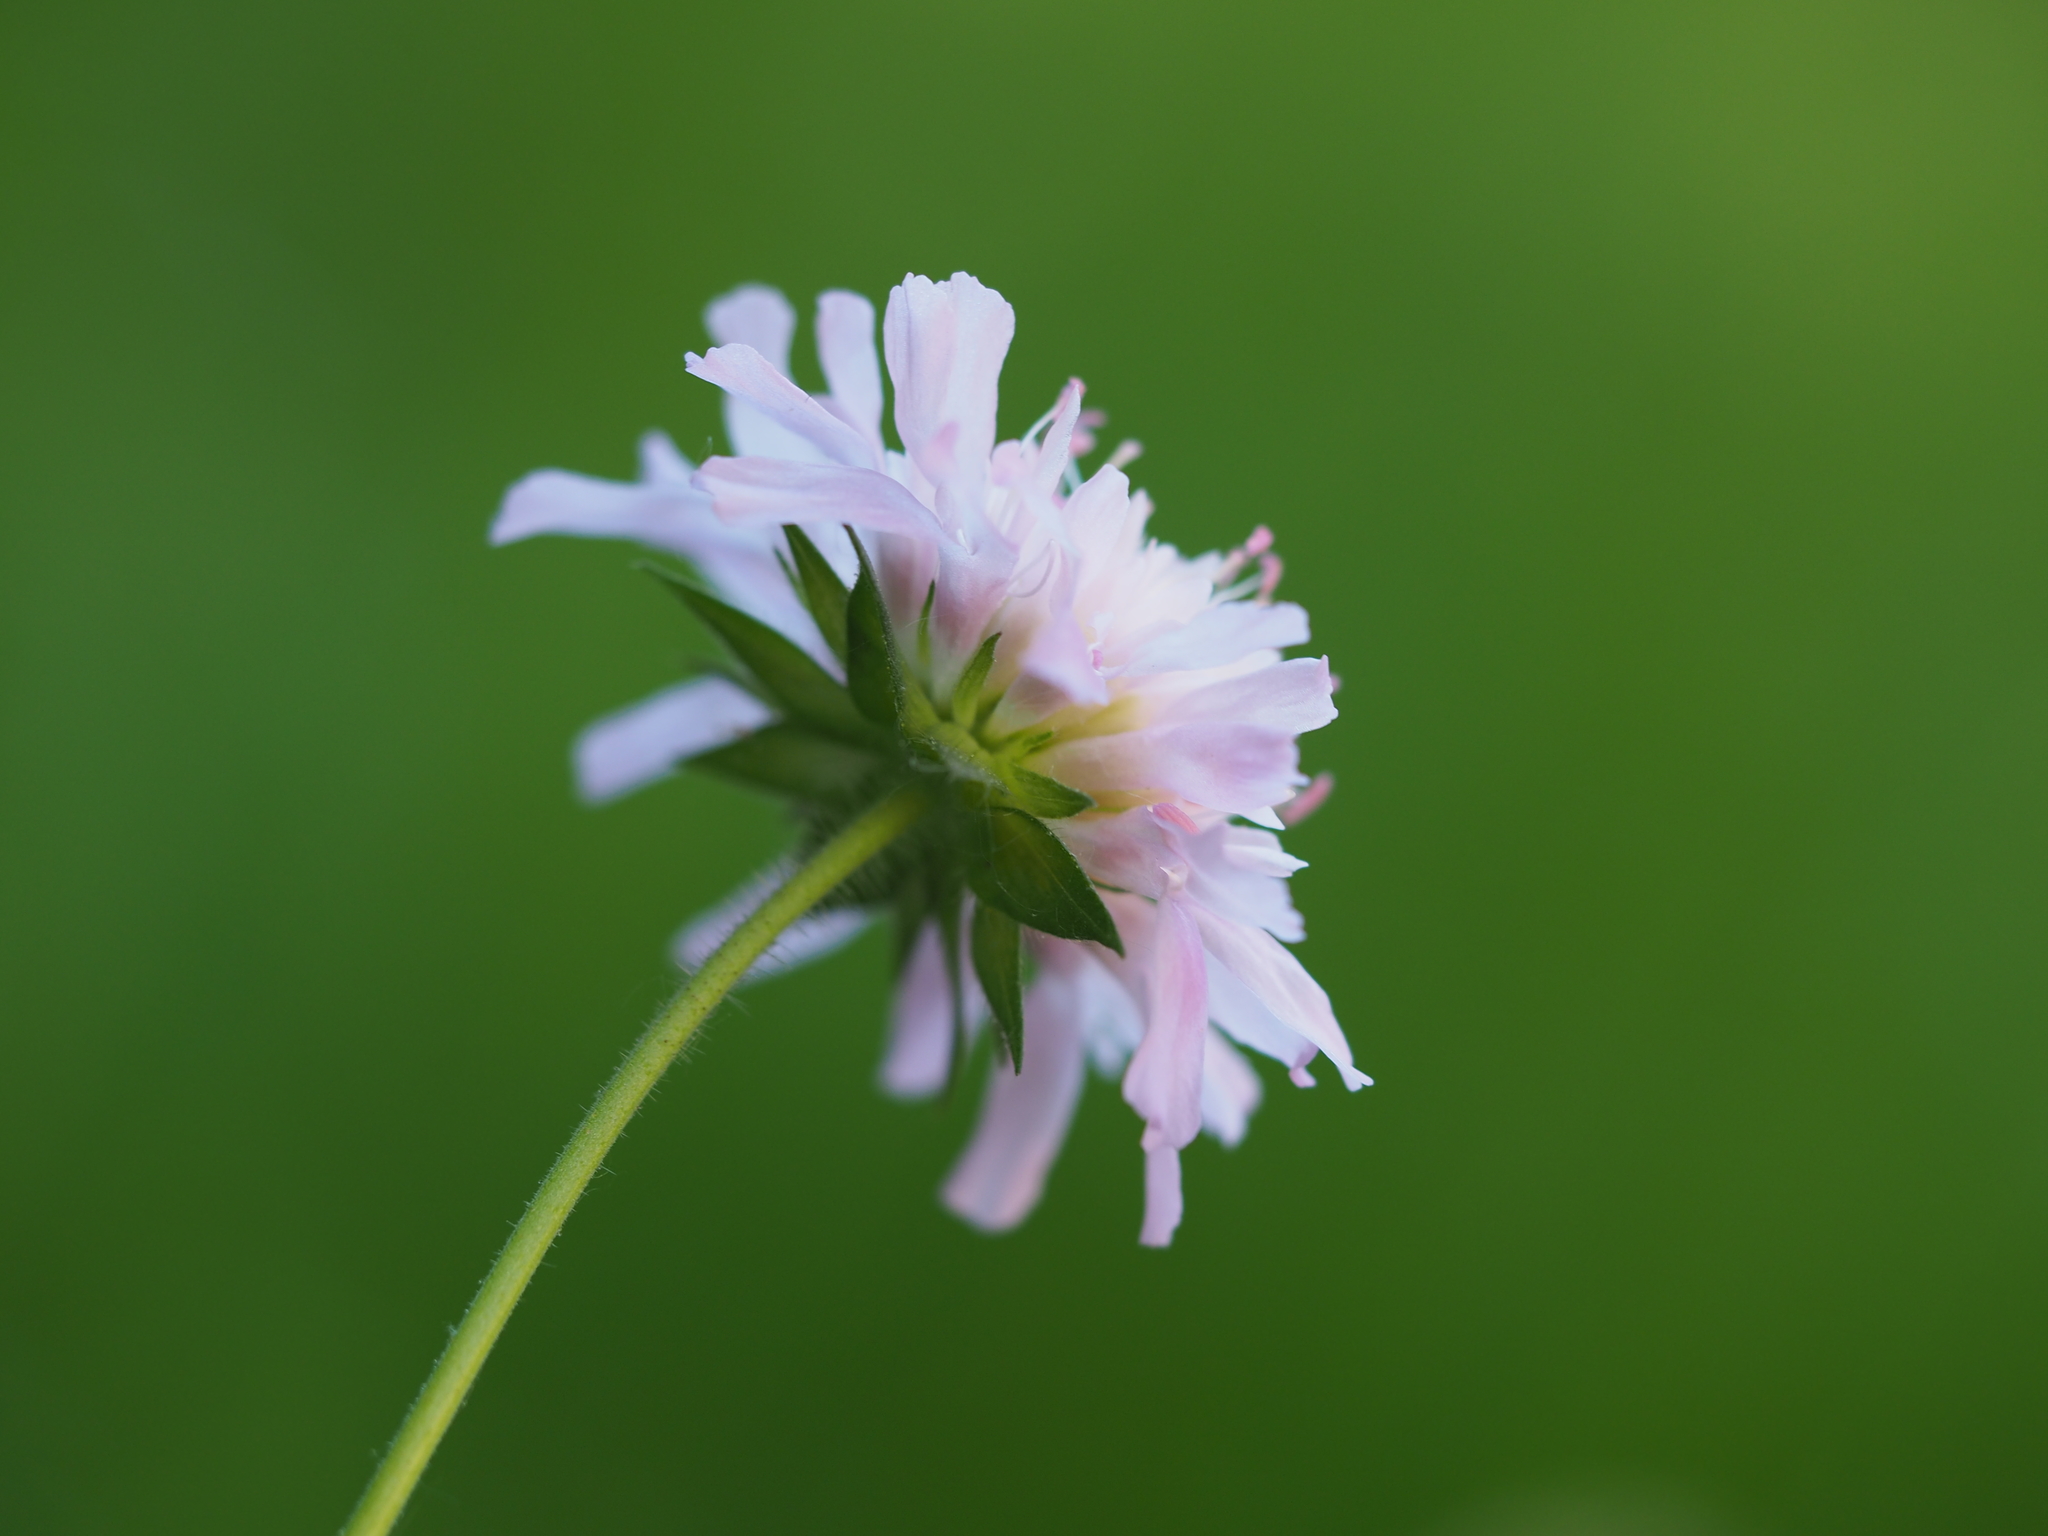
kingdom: Plantae
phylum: Tracheophyta
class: Magnoliopsida
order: Dipsacales
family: Caprifoliaceae
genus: Knautia
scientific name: Knautia arvensis
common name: Field scabiosa
